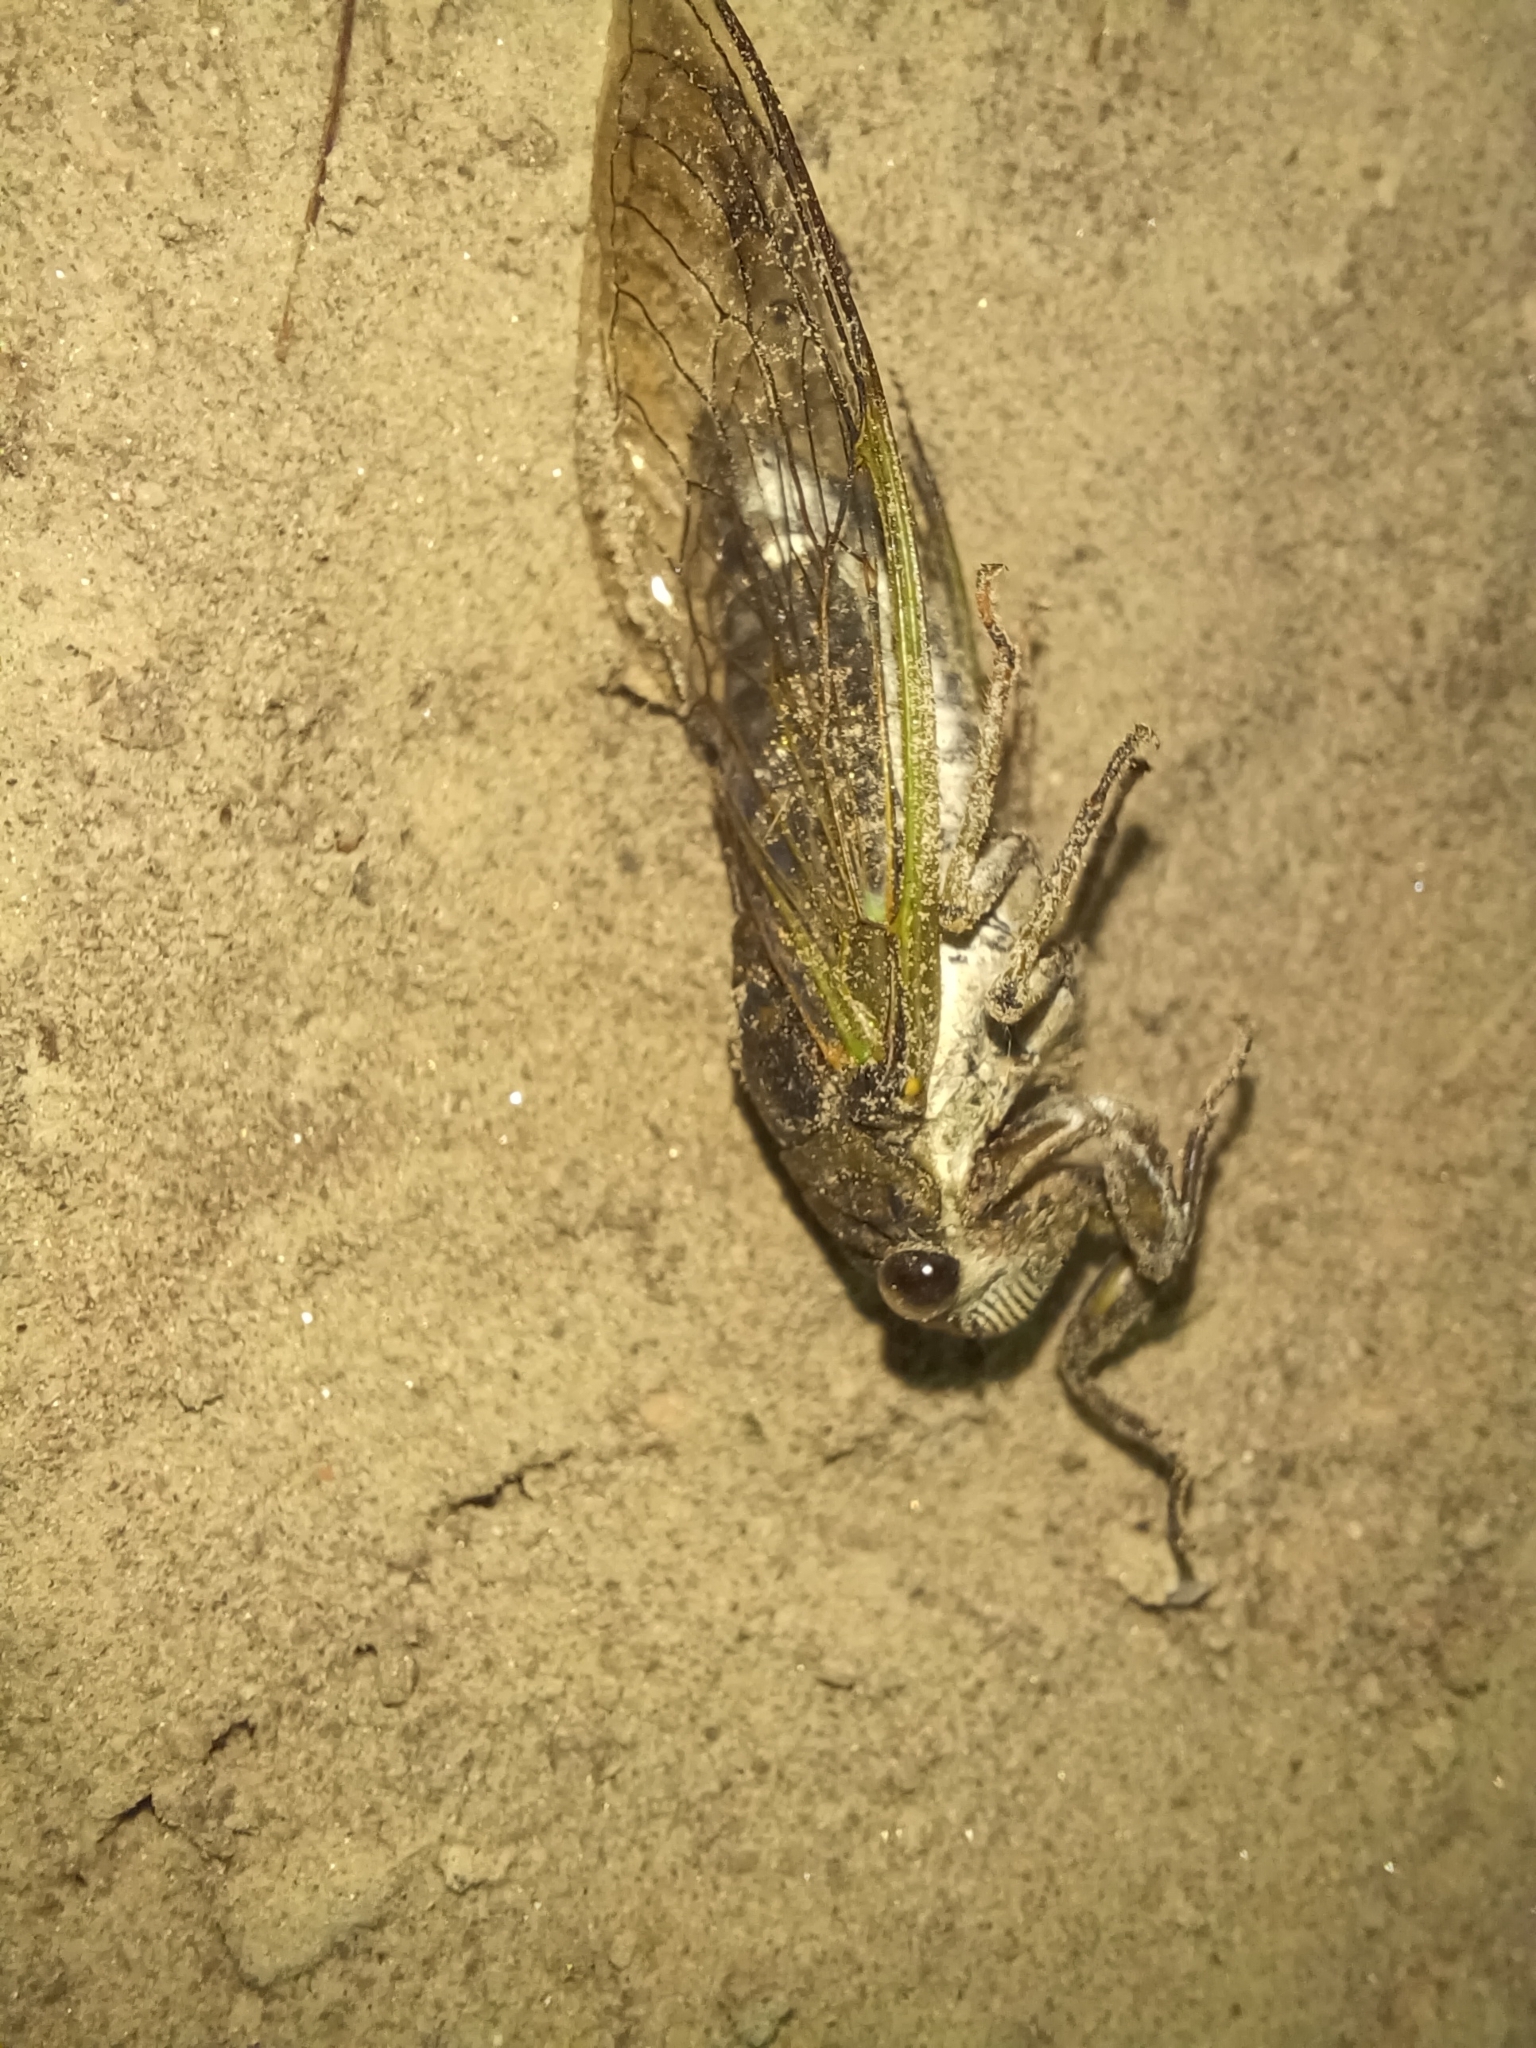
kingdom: Animalia
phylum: Arthropoda
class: Insecta
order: Hemiptera
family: Cicadidae
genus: Neotibicen
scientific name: Neotibicen canicularis
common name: God-day cicada
